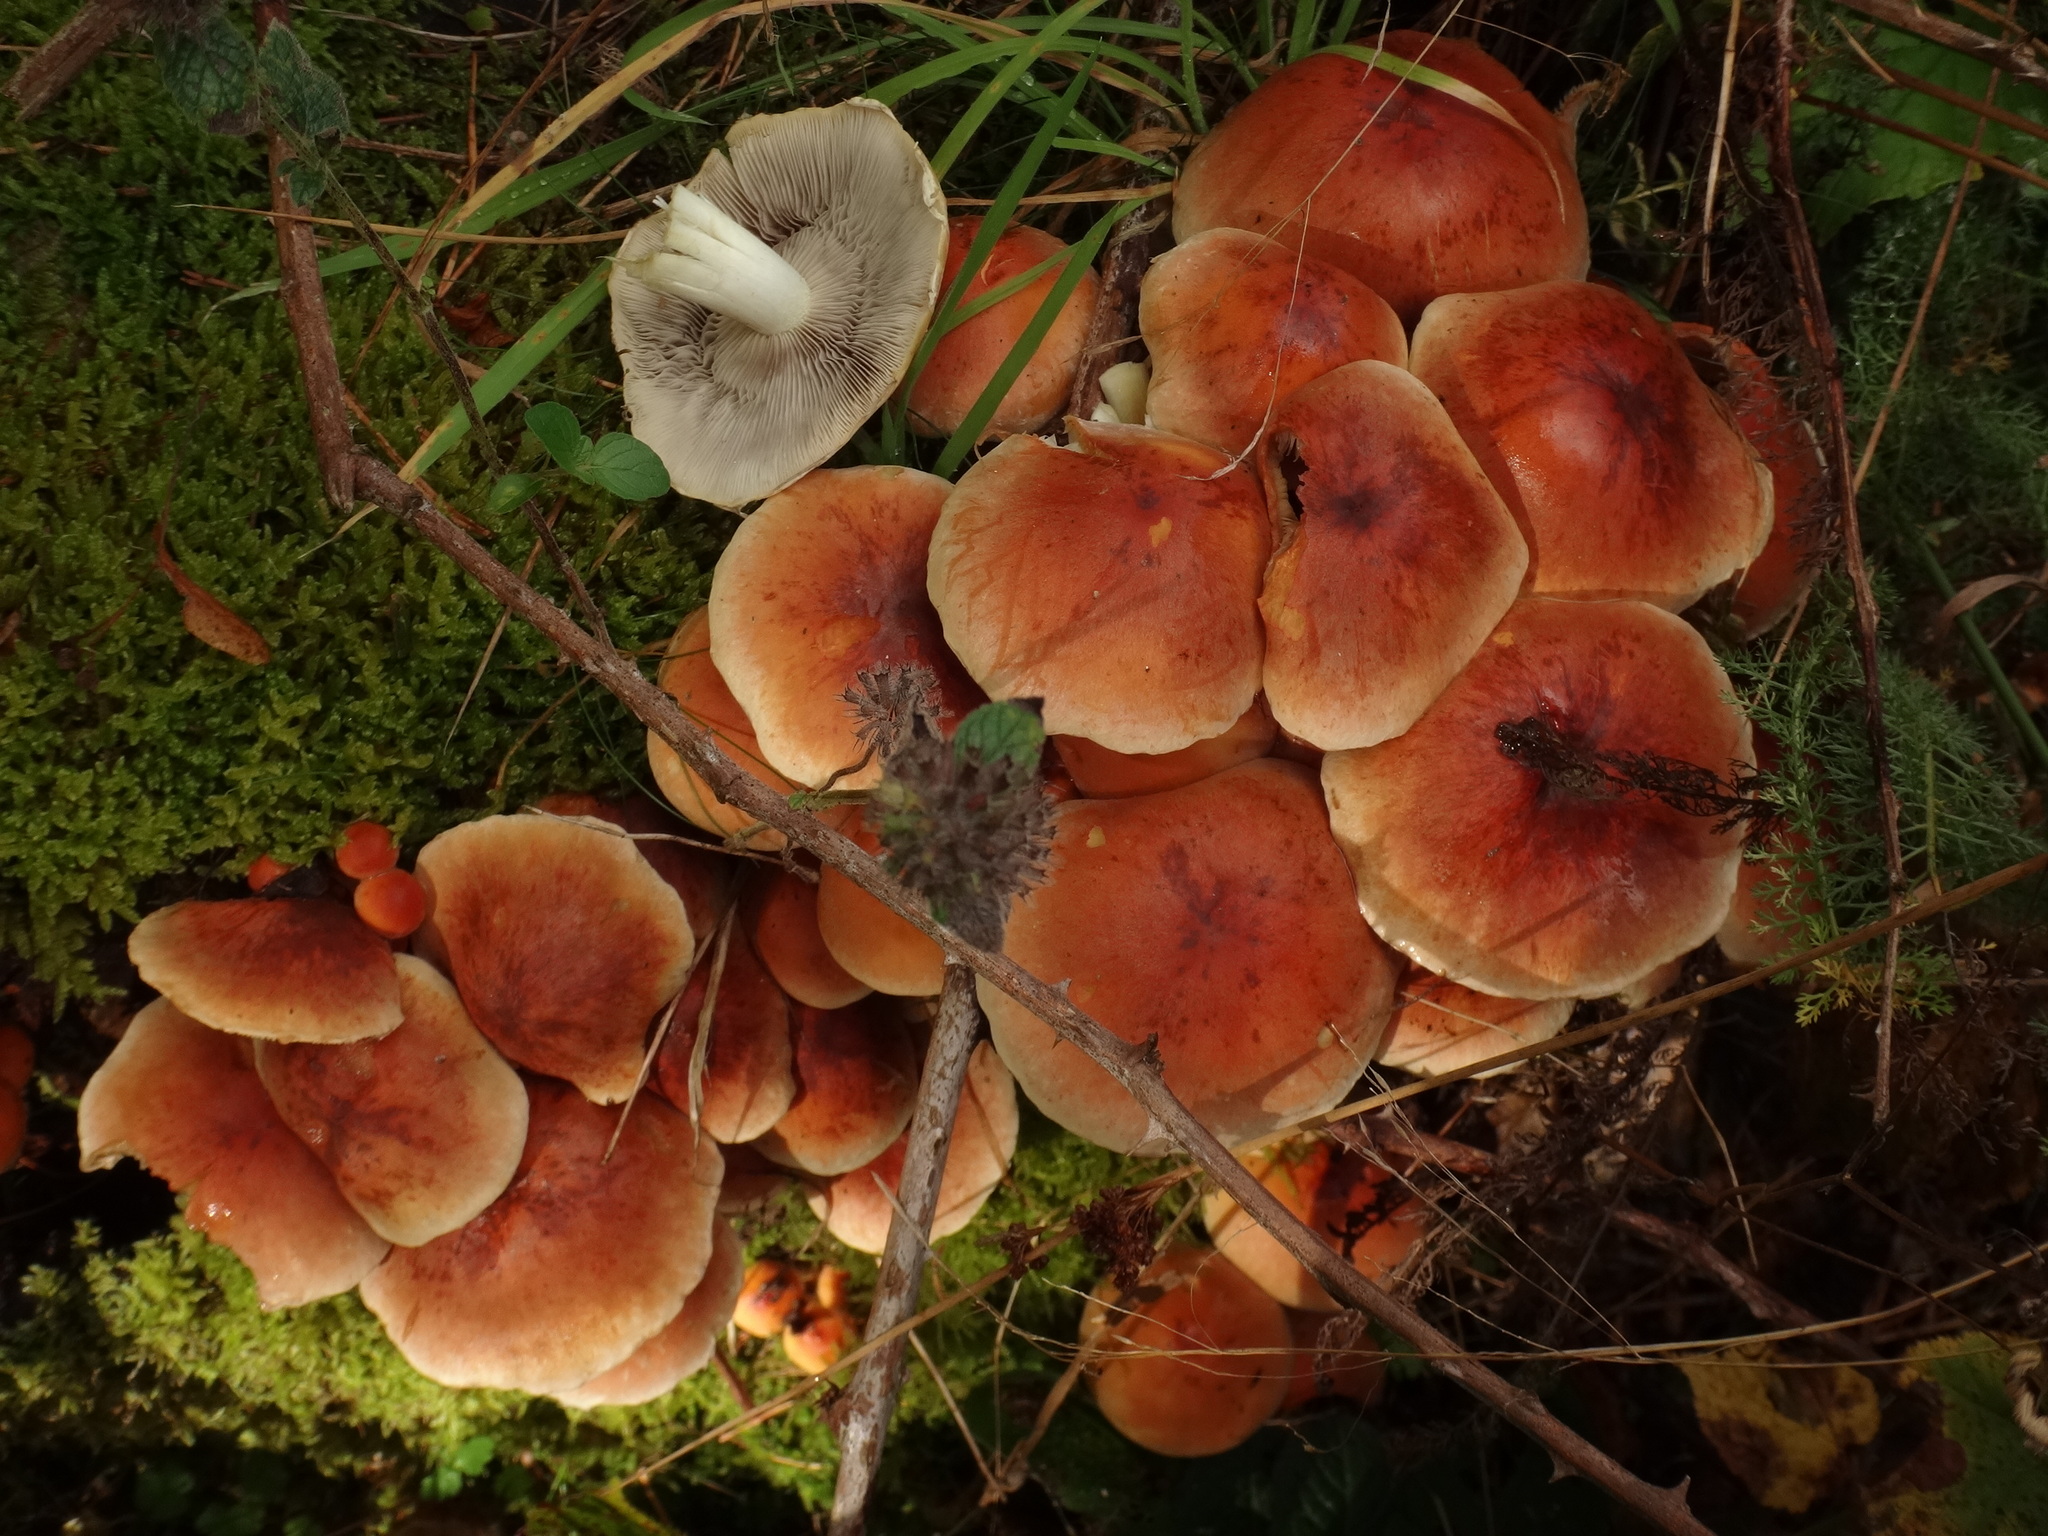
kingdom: Fungi
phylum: Basidiomycota
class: Agaricomycetes
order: Agaricales
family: Strophariaceae
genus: Hypholoma
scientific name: Hypholoma lateritium
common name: Brick caps
